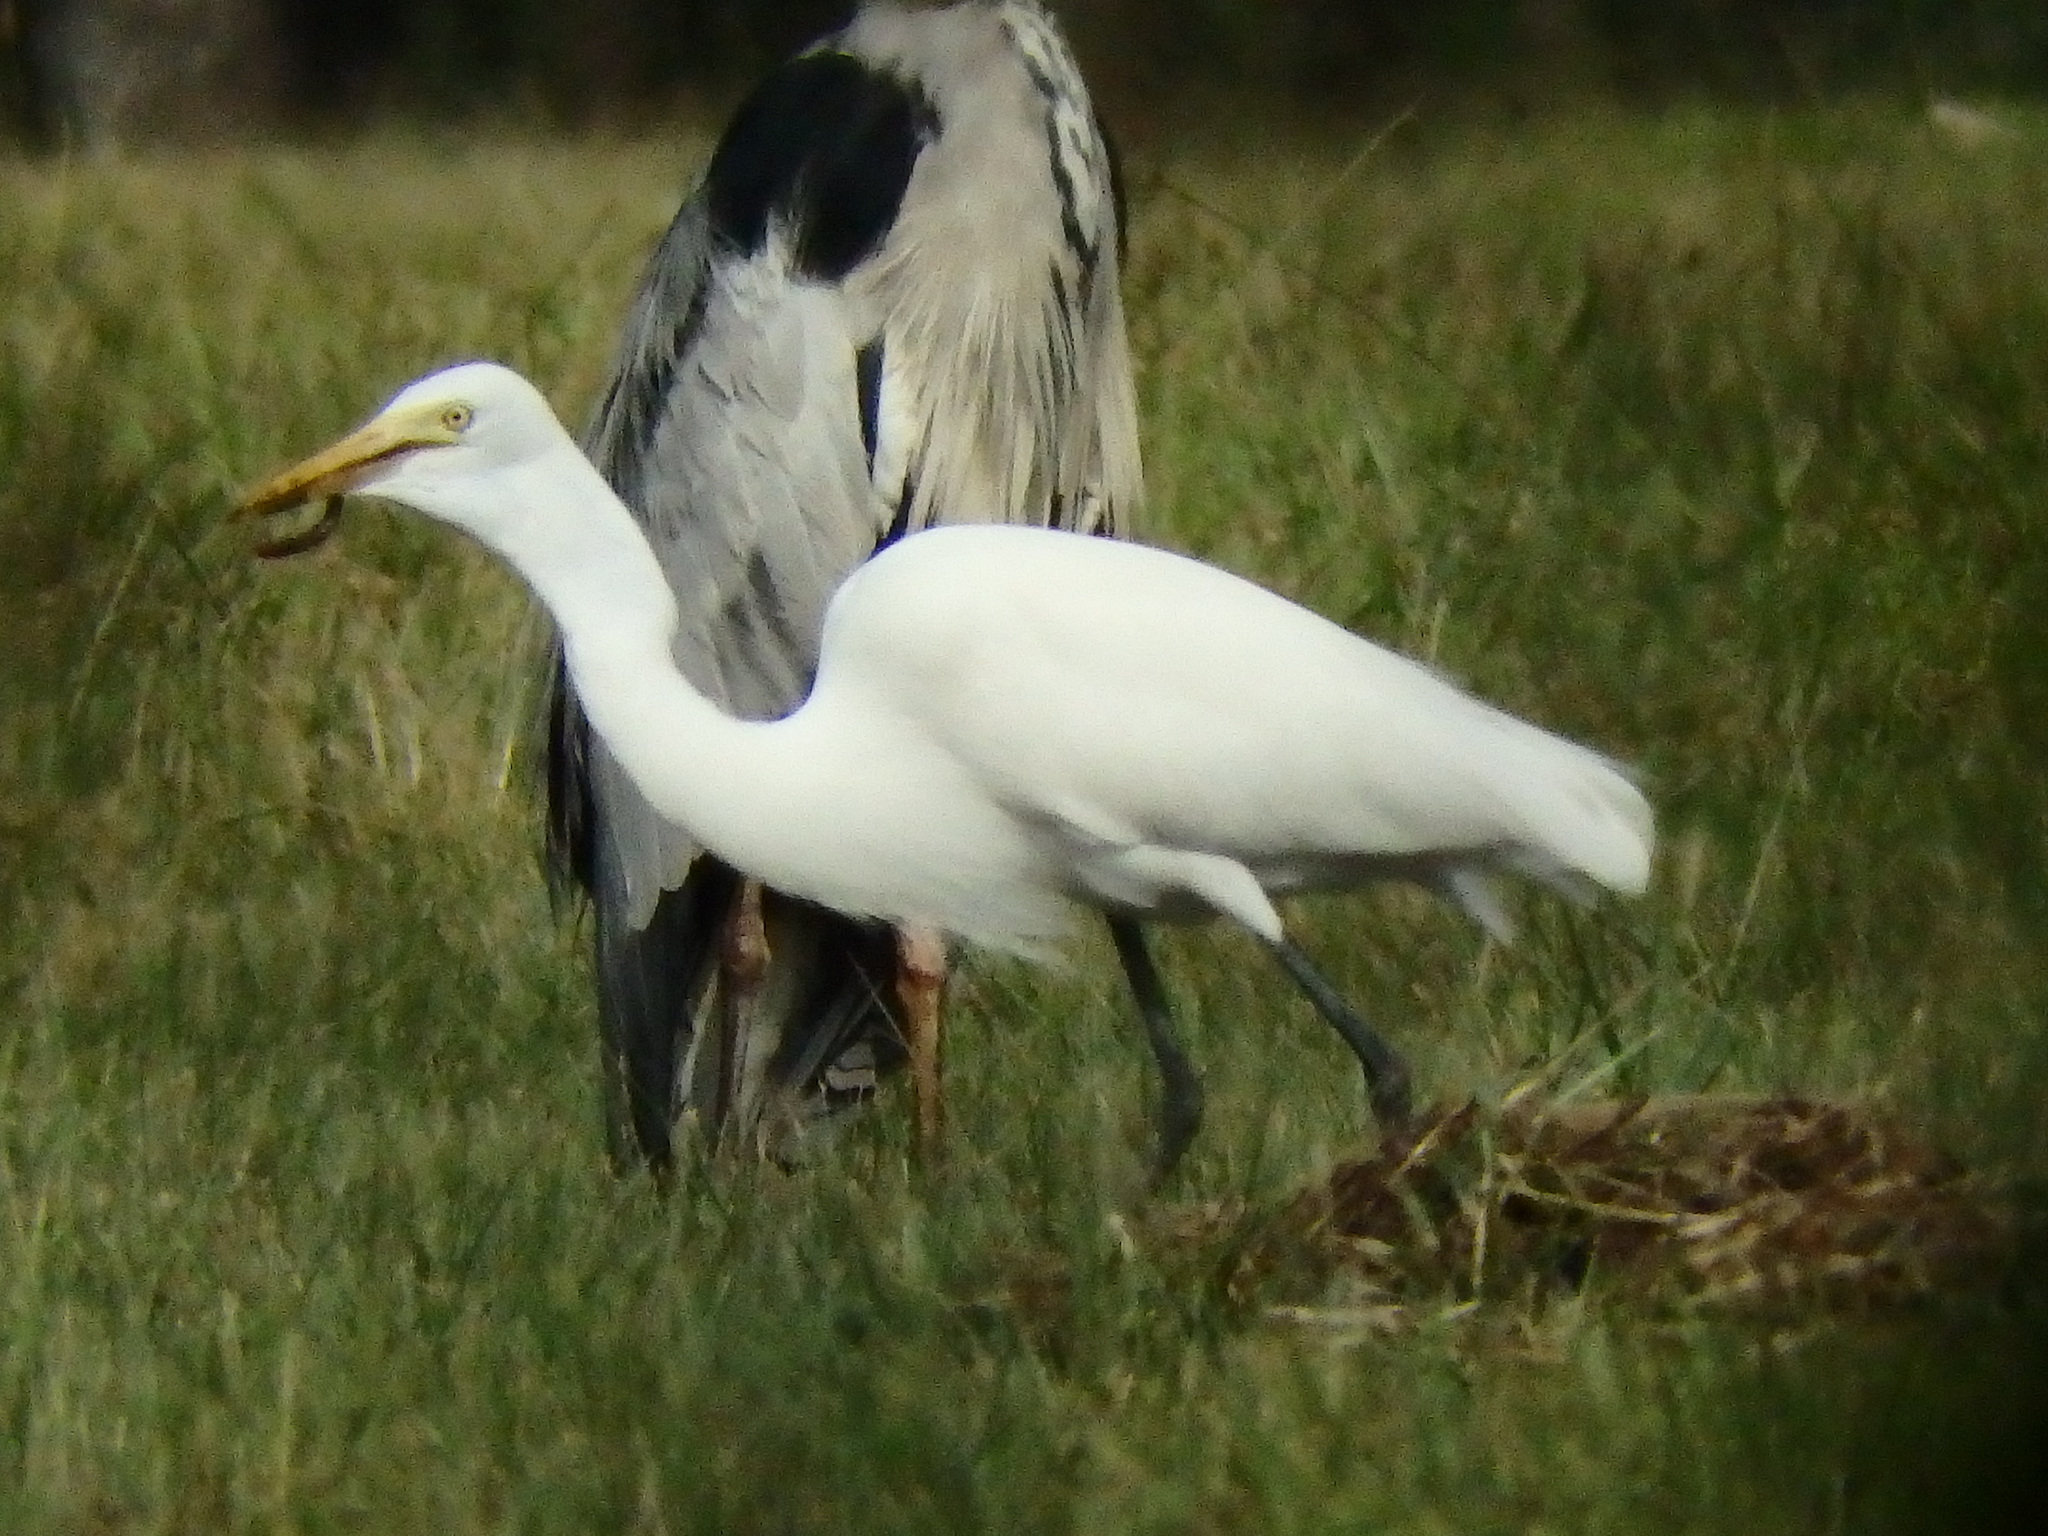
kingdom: Animalia
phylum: Chordata
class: Aves
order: Pelecaniformes
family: Ardeidae
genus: Egretta
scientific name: Egretta intermedia
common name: Intermediate egret
